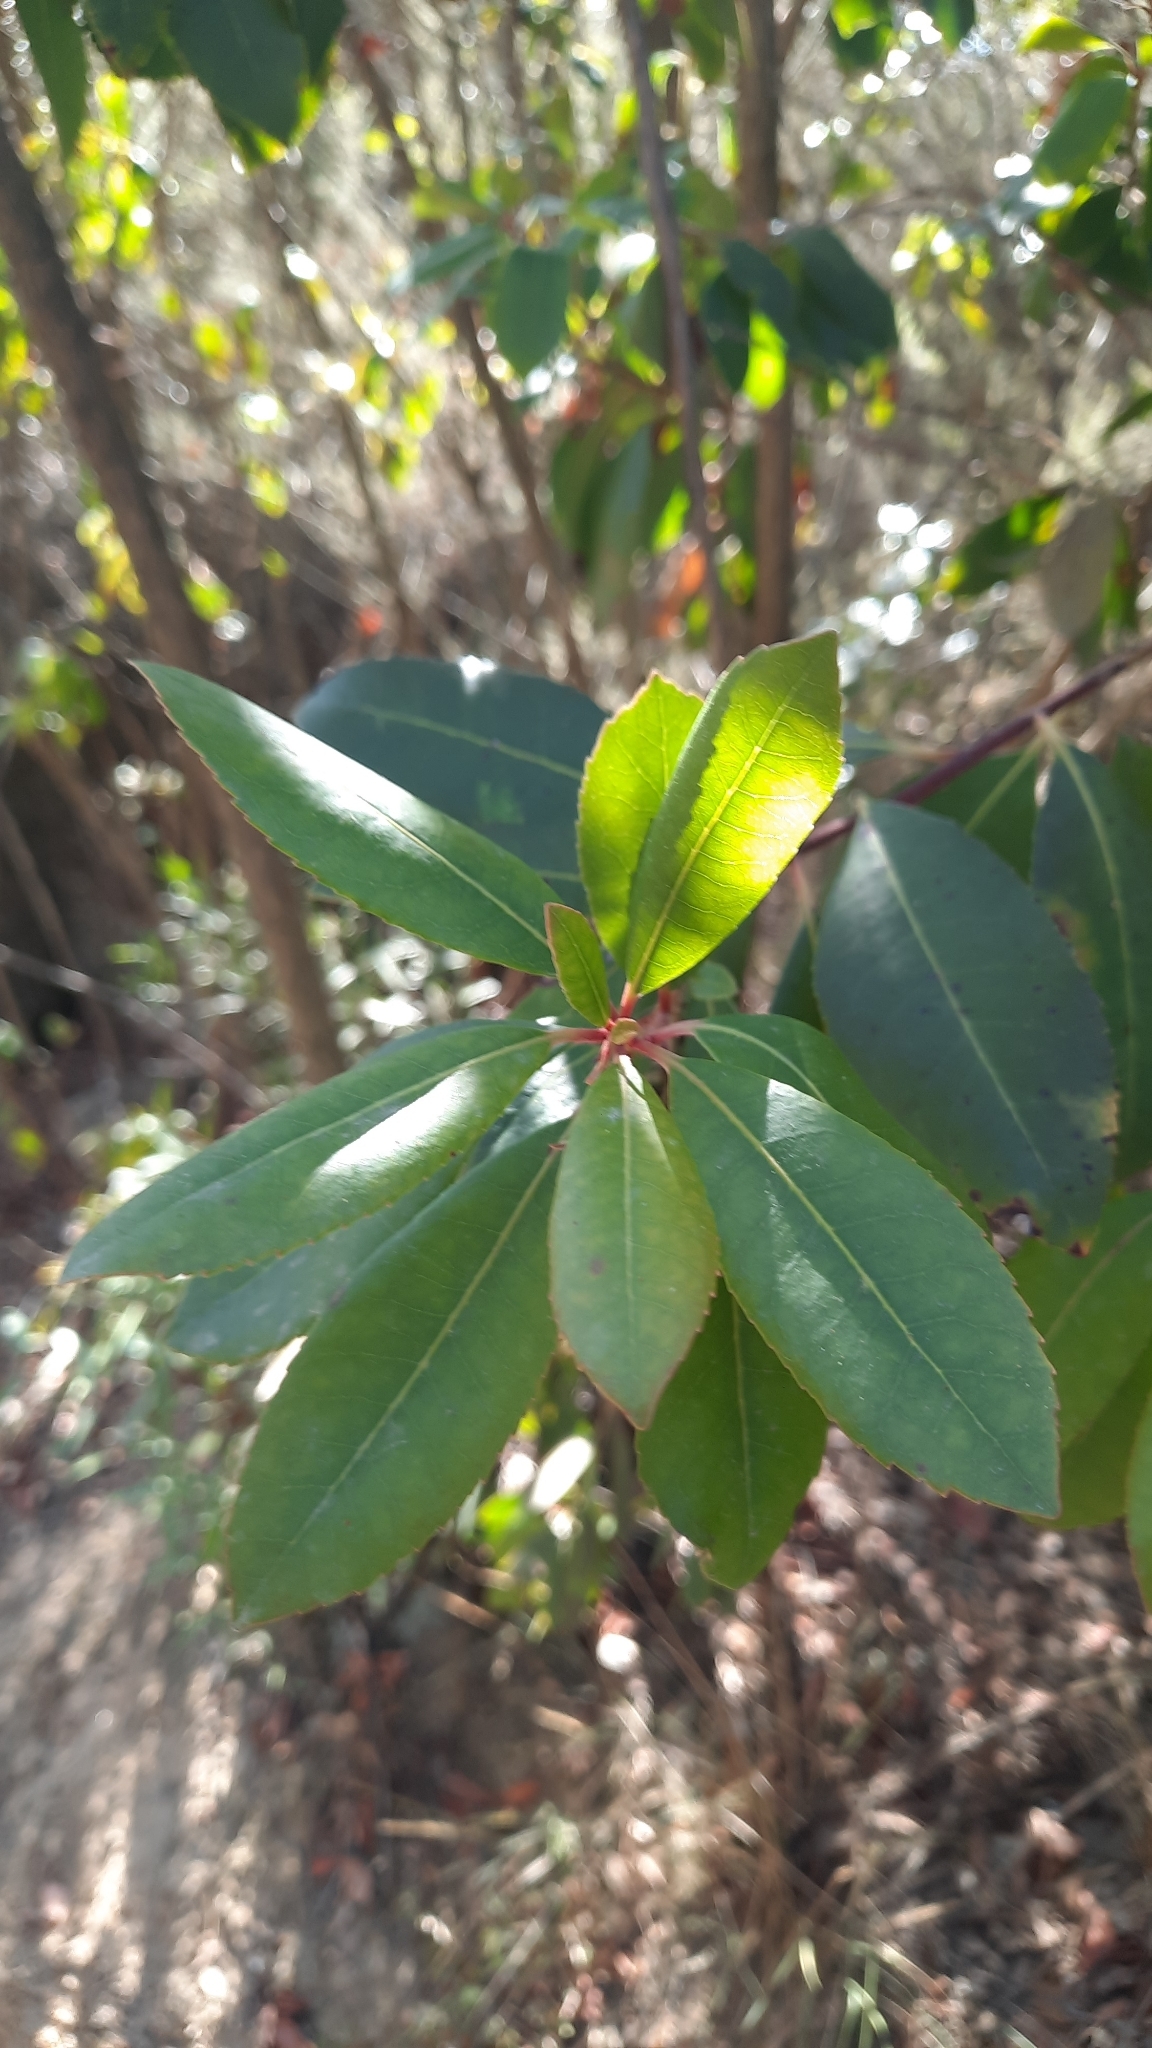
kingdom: Plantae
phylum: Tracheophyta
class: Magnoliopsida
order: Ericales
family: Ericaceae
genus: Arbutus
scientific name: Arbutus unedo
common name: Strawberry-tree
